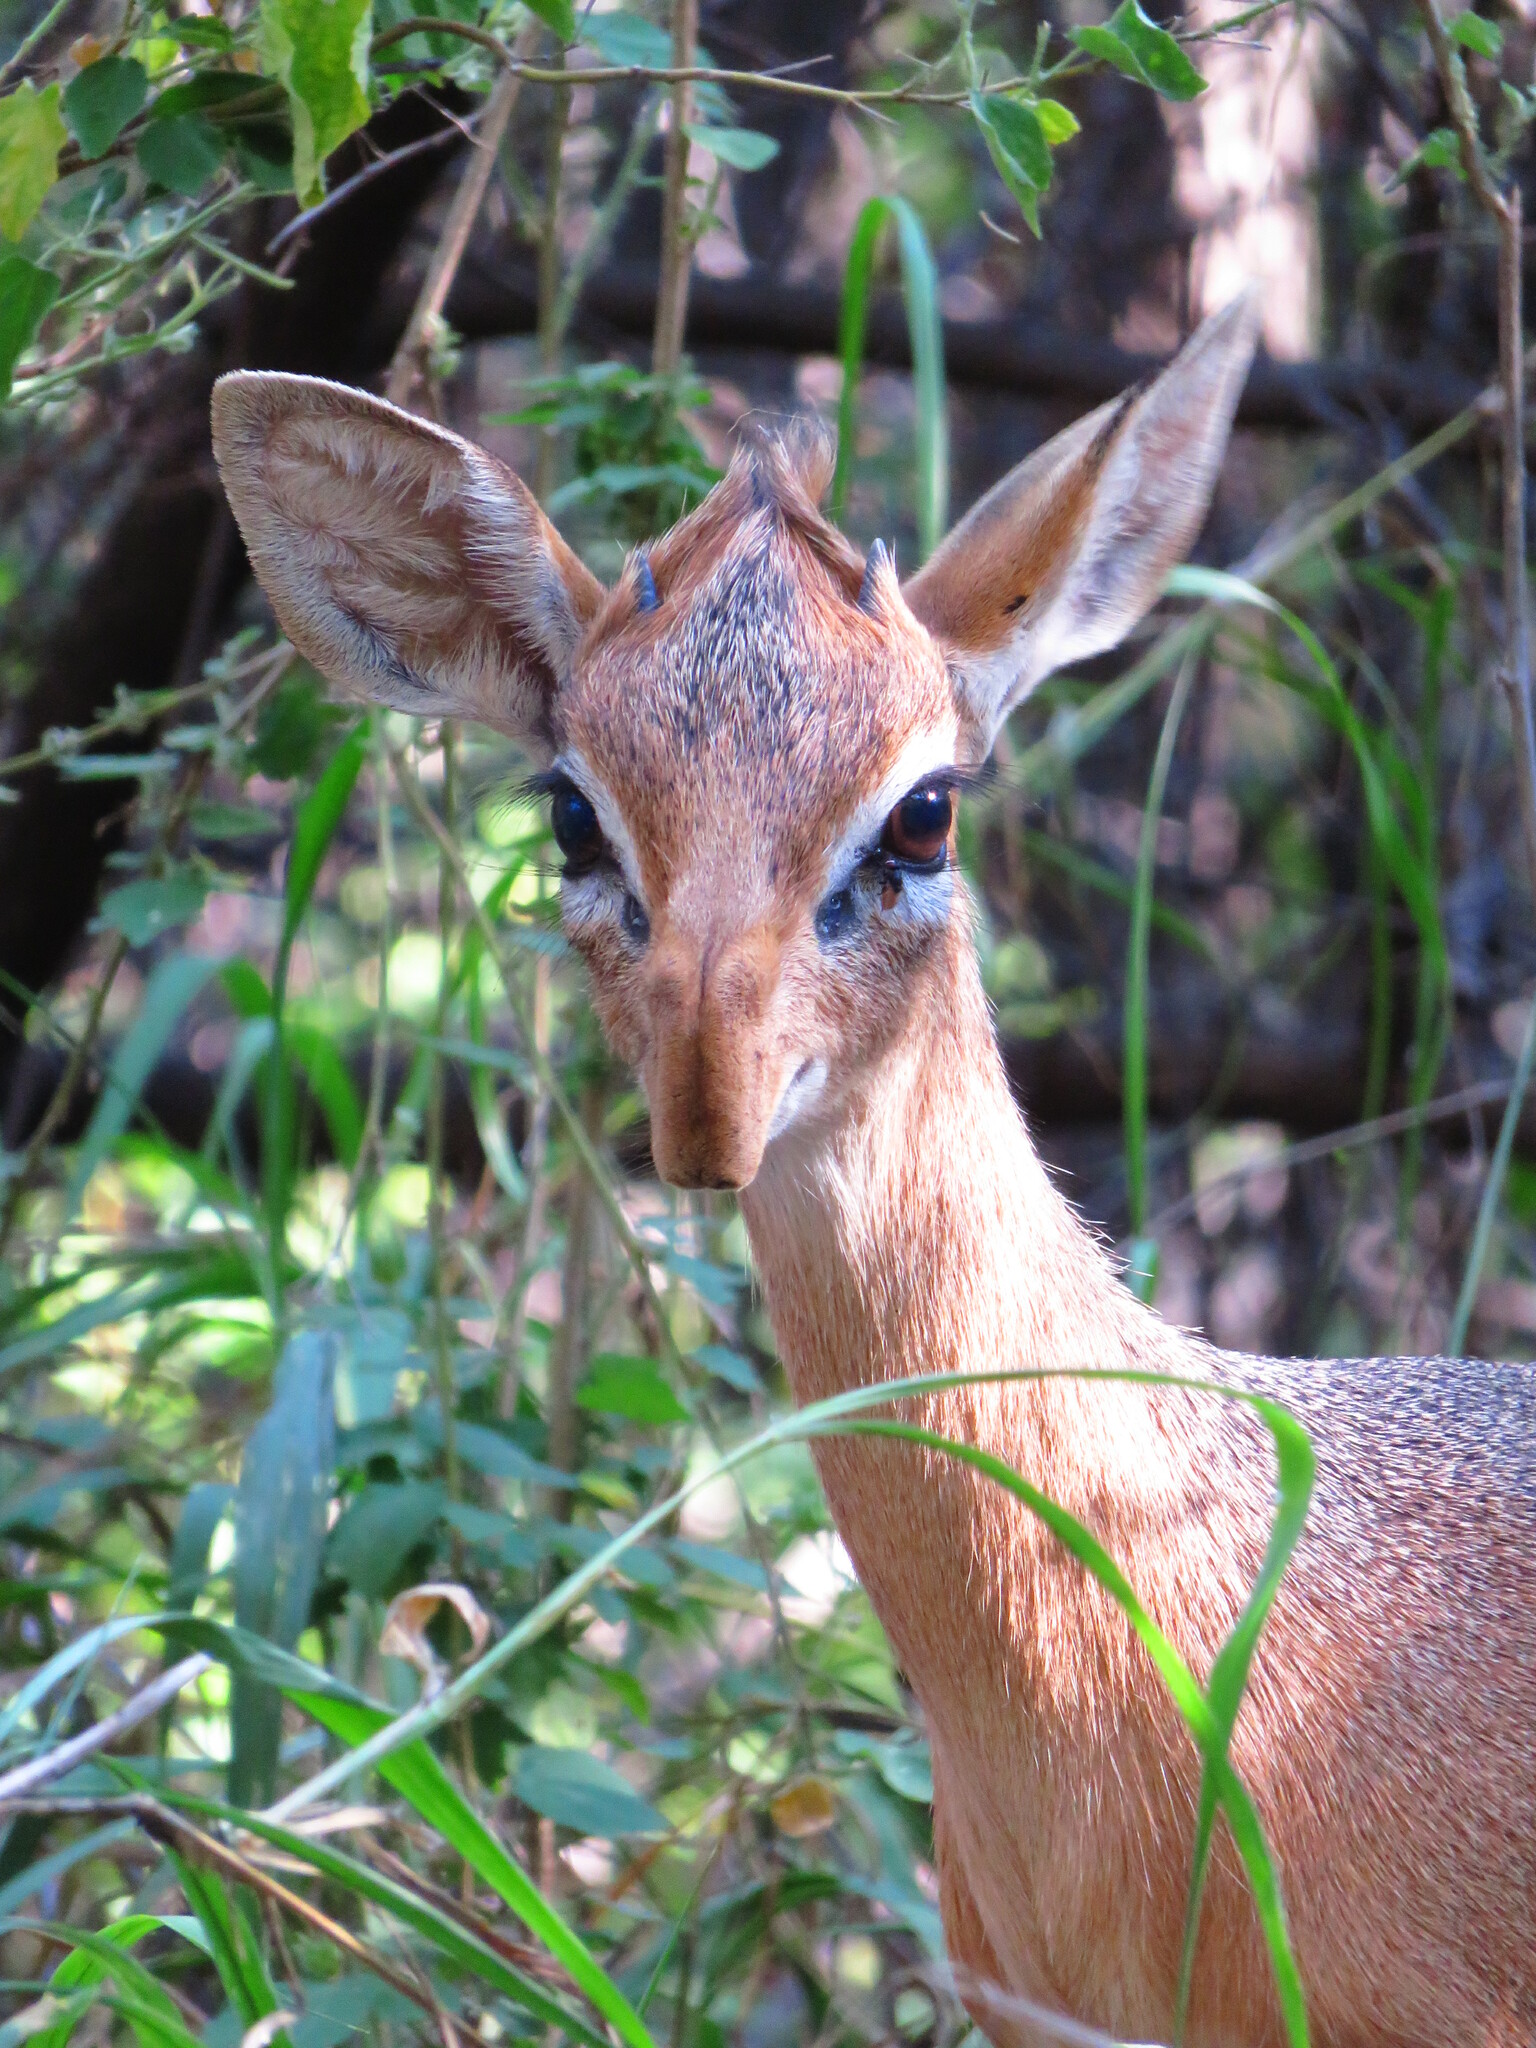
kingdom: Animalia
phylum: Chordata
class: Mammalia
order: Artiodactyla
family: Bovidae
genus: Madoqua
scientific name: Madoqua kirkii
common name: Kirk's dik-dik
